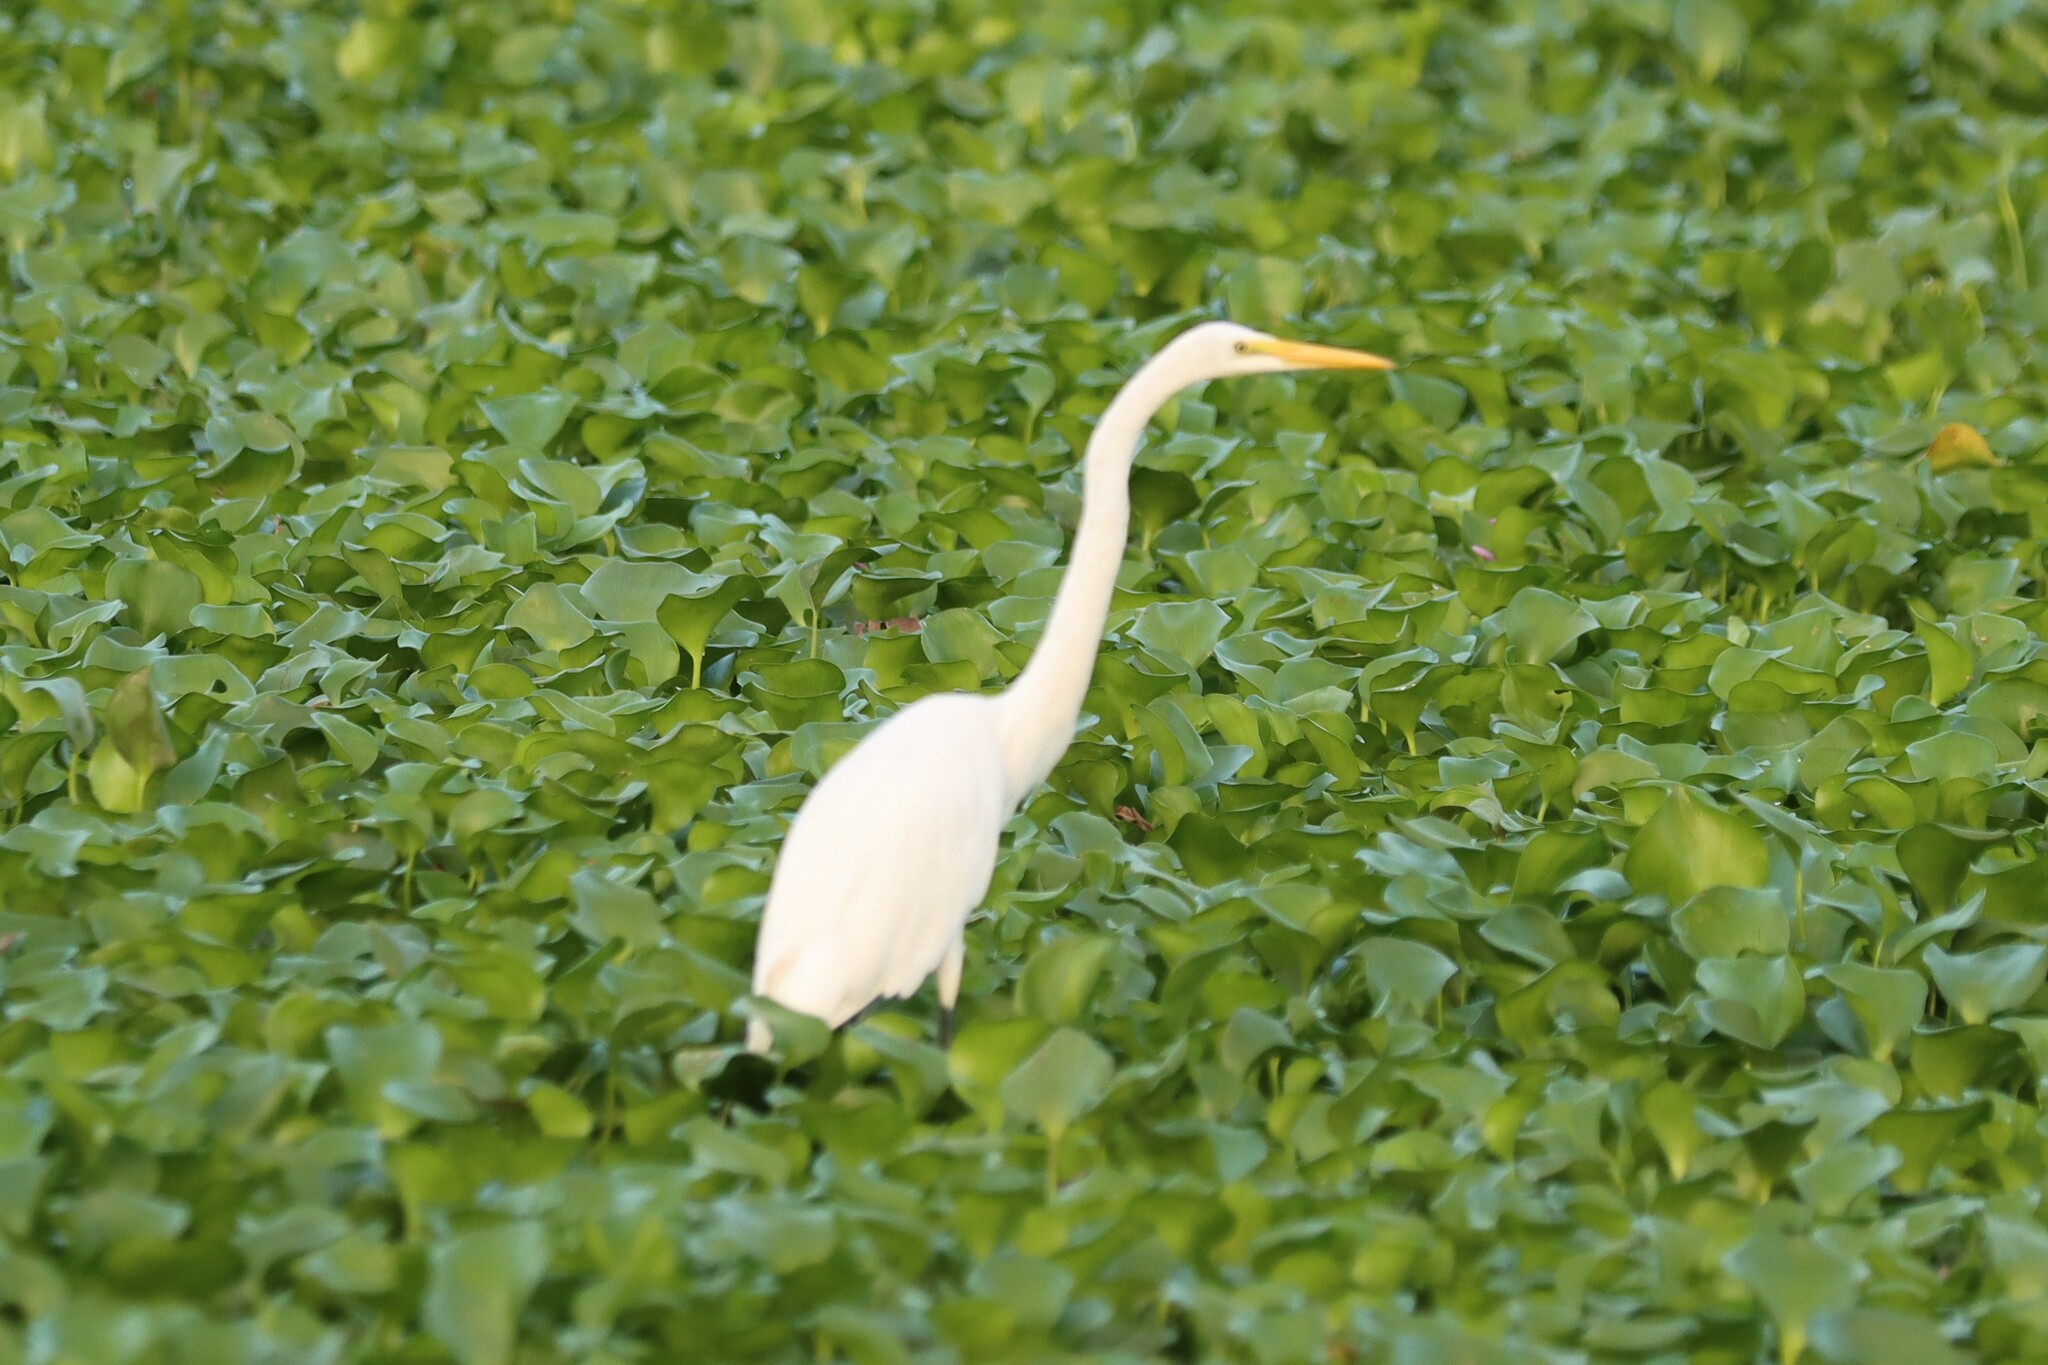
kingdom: Animalia
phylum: Chordata
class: Aves
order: Pelecaniformes
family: Ardeidae
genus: Ardea
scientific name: Ardea alba
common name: Great egret
